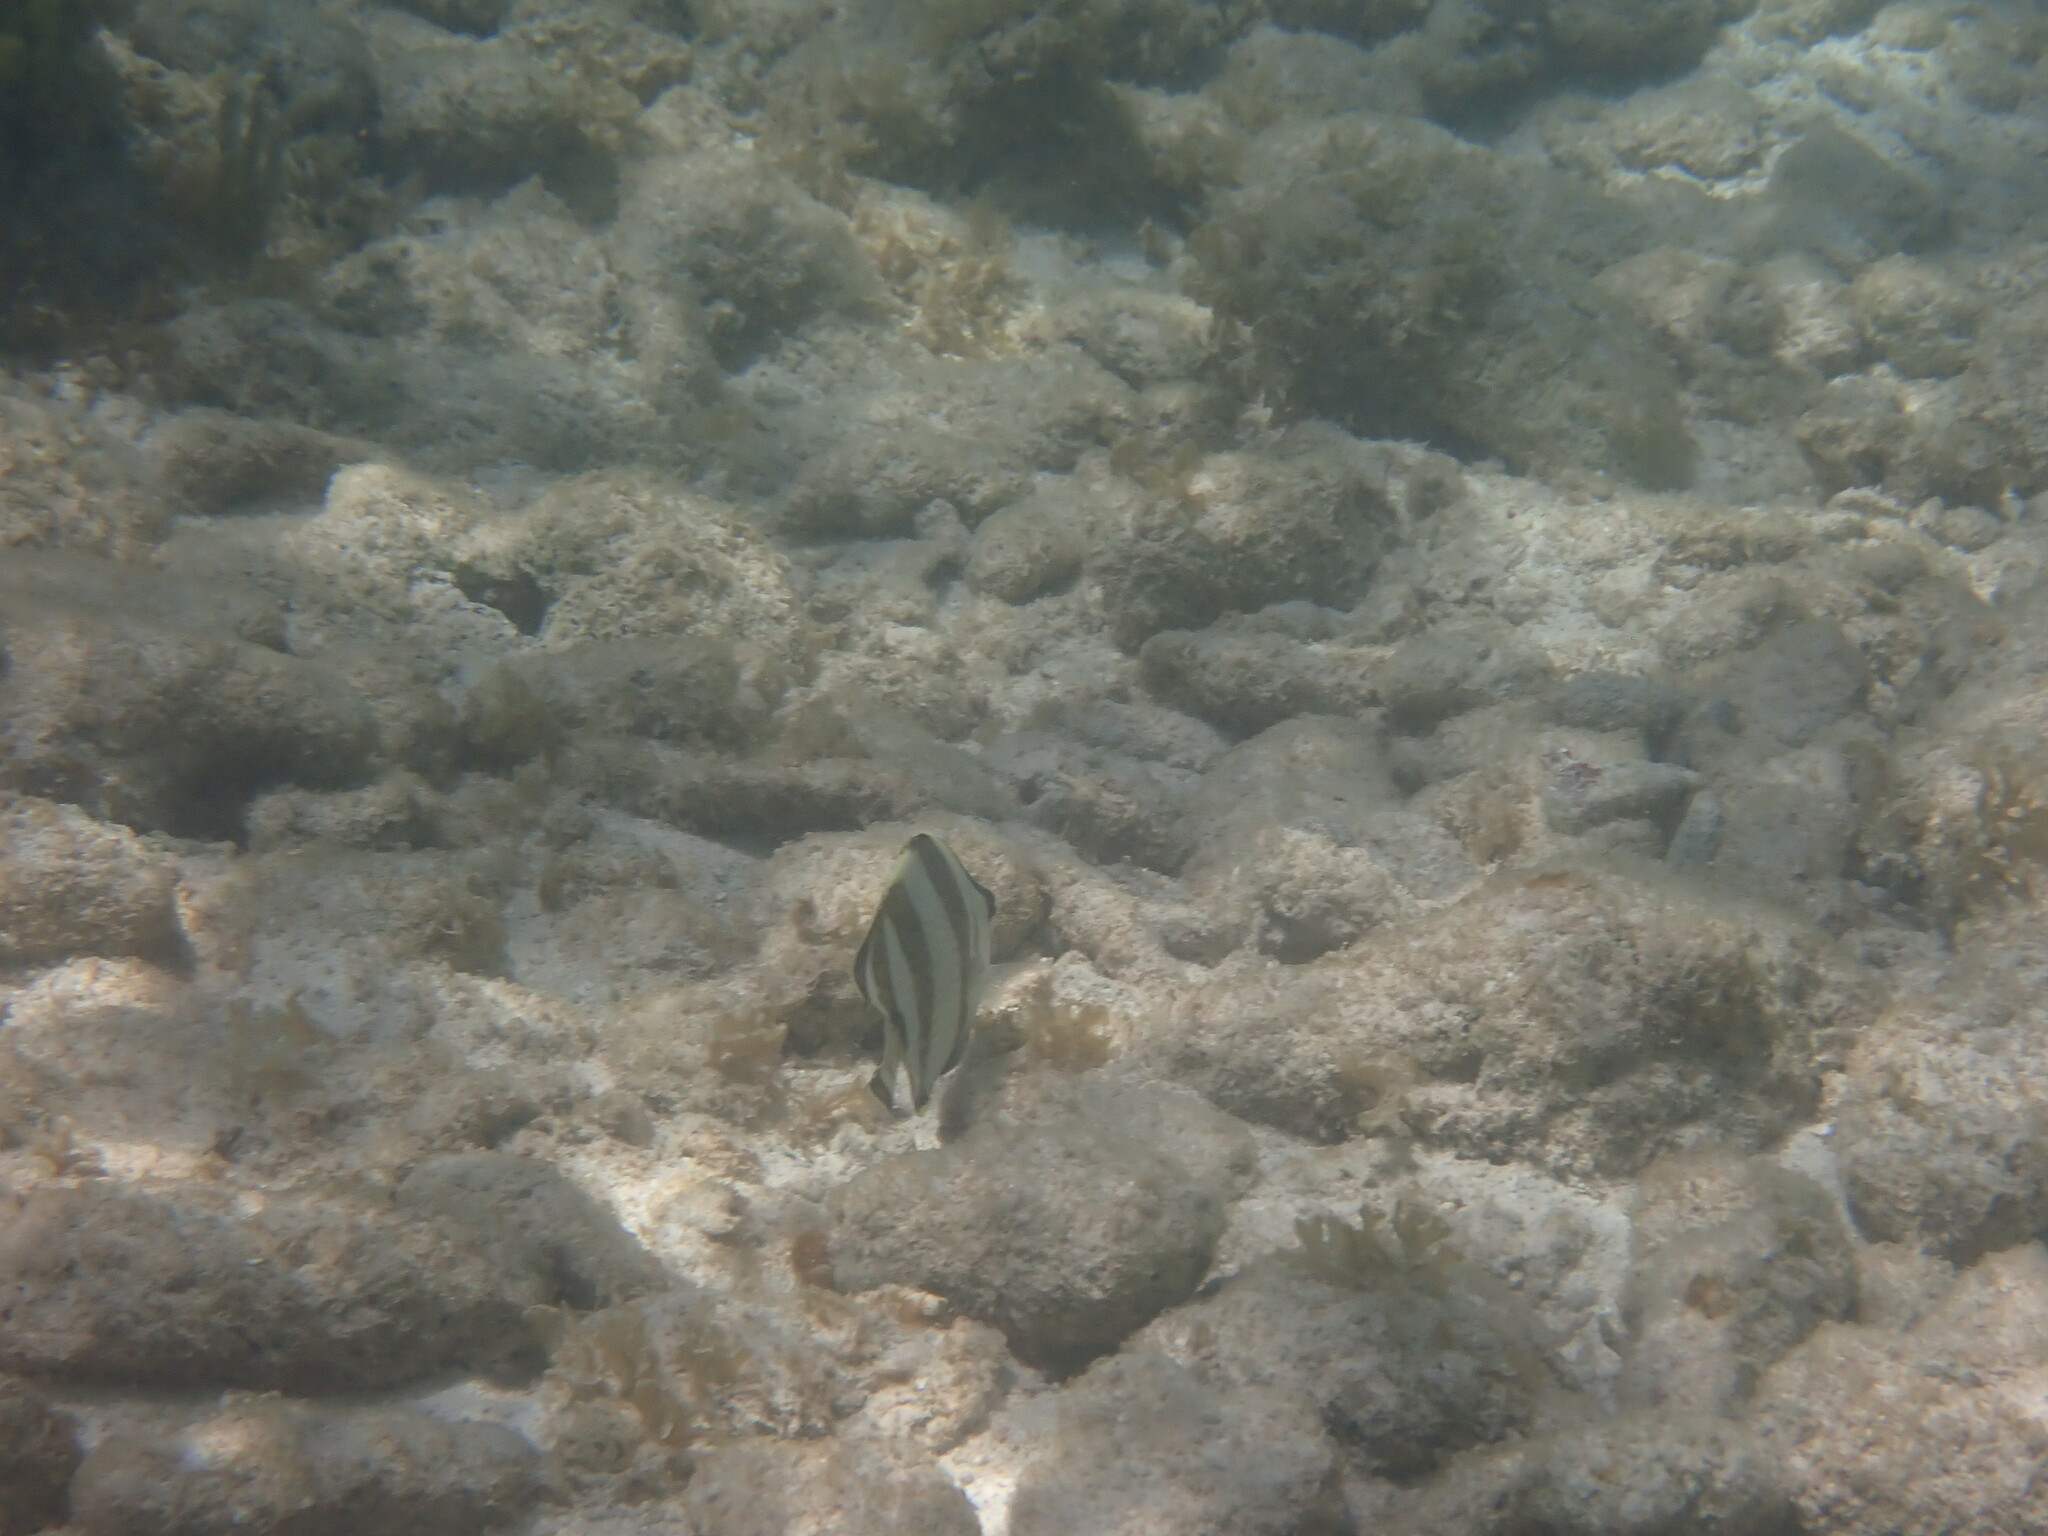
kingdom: Animalia
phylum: Chordata
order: Perciformes
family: Chaetodontidae
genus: Chaetodon
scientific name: Chaetodon striatus
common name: Banded butterflyfish
